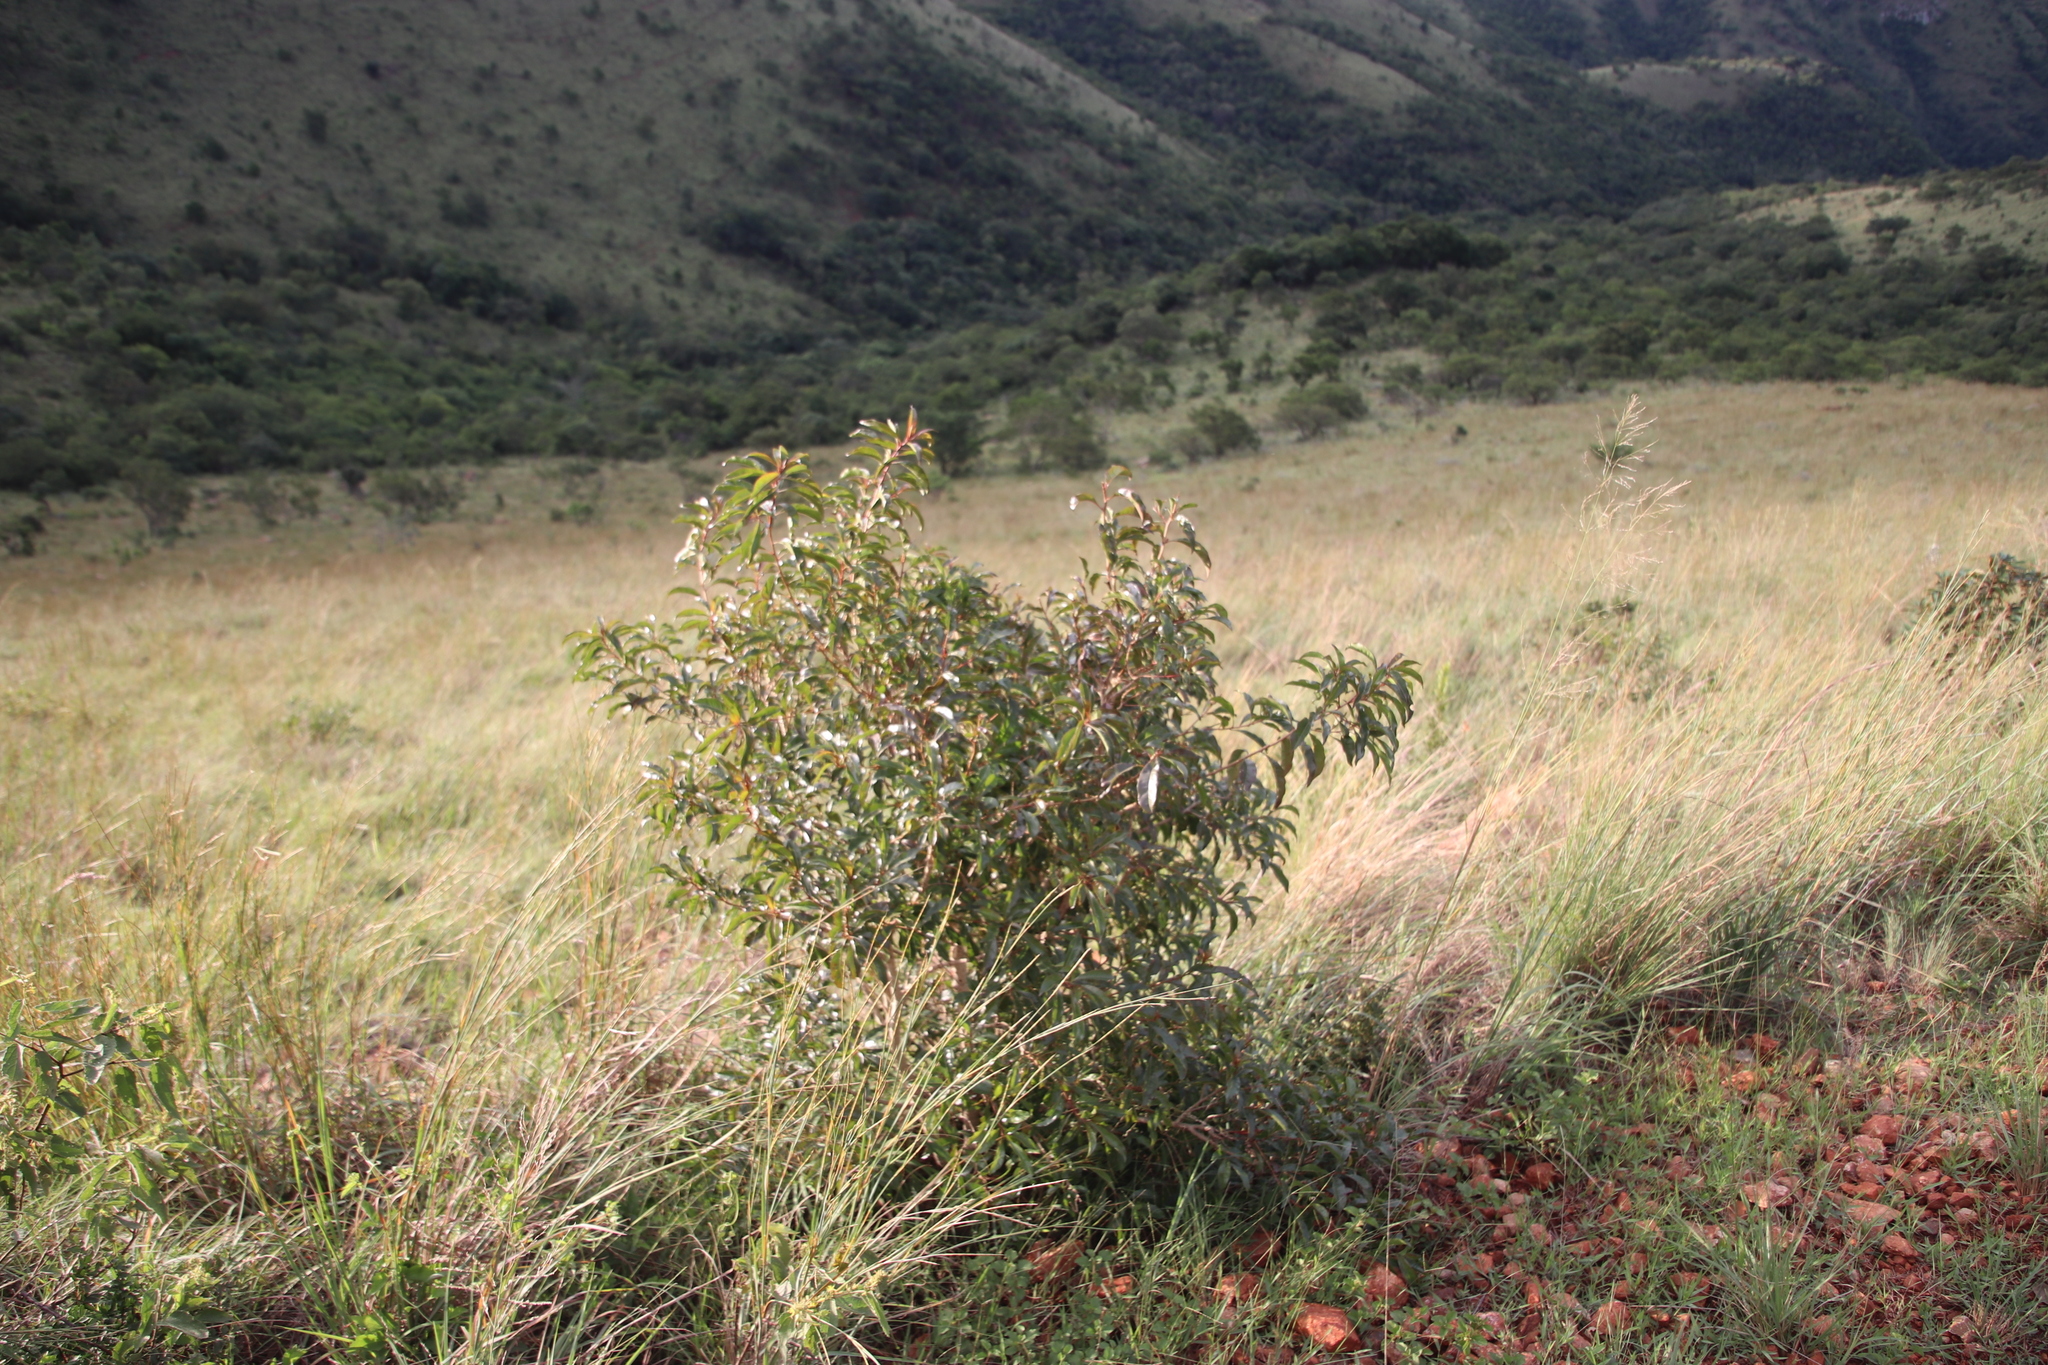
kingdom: Plantae
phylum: Tracheophyta
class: Magnoliopsida
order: Myrtales
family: Myrtaceae
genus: Heteropyxis
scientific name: Heteropyxis natalensis
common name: Lavender tree
